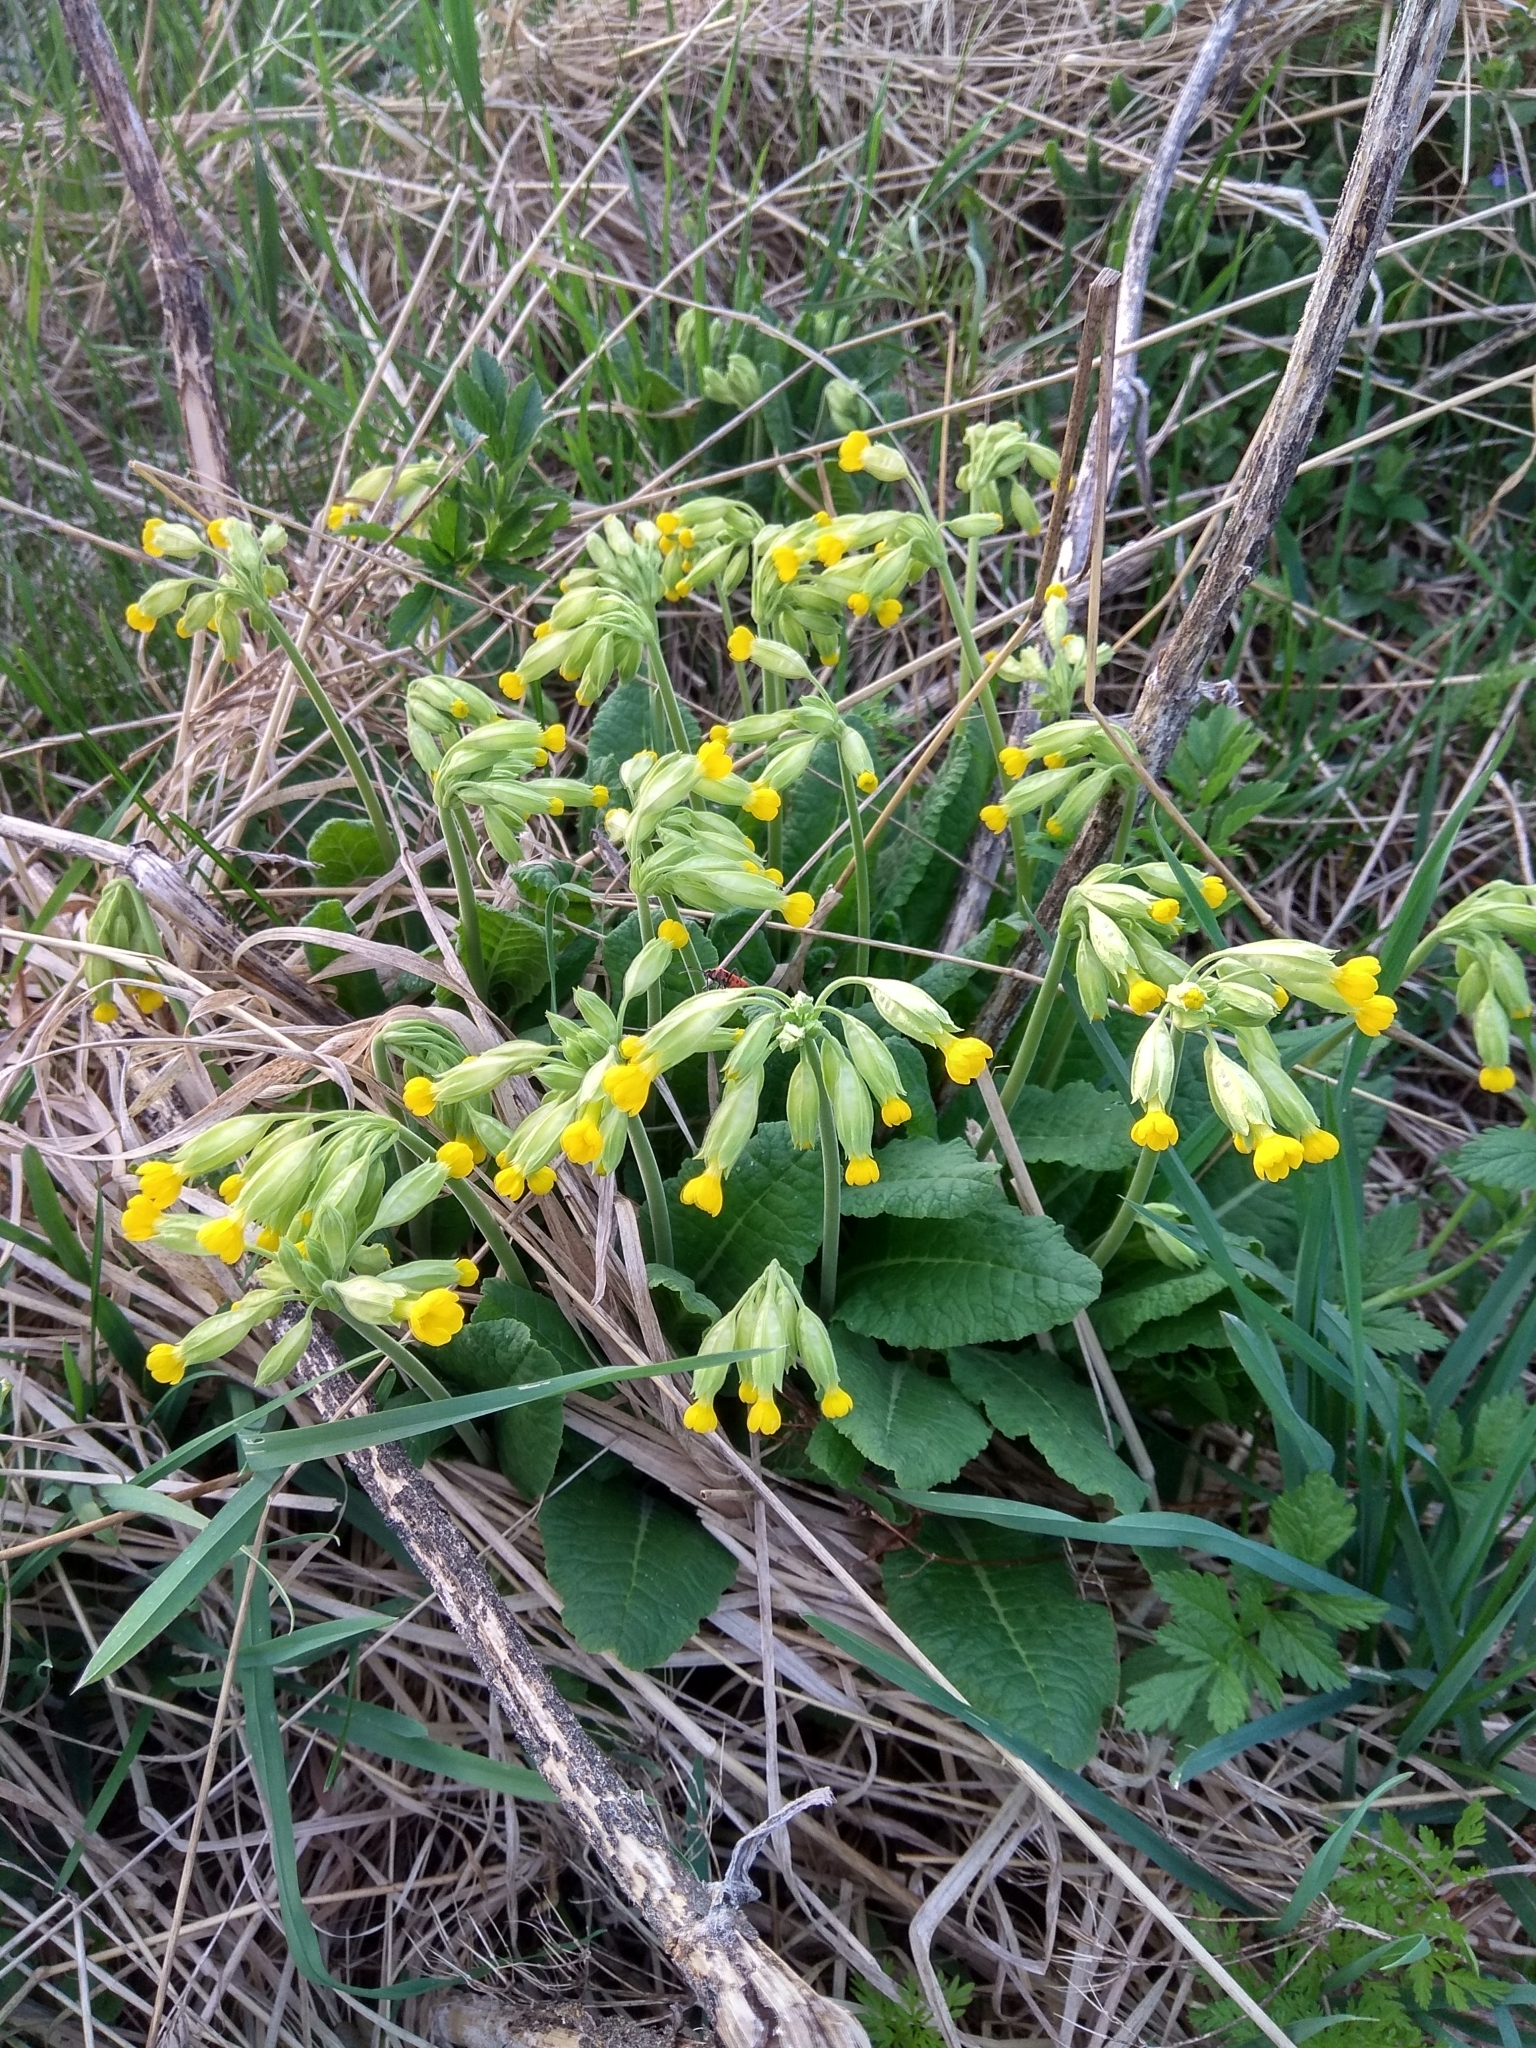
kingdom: Plantae
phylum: Tracheophyta
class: Magnoliopsida
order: Ericales
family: Primulaceae
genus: Primula
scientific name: Primula veris
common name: Cowslip
